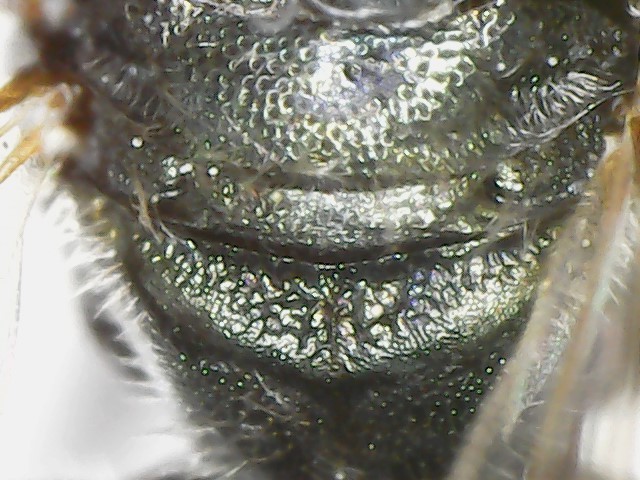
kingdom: Animalia
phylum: Arthropoda
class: Insecta
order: Hymenoptera
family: Apidae
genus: Ceratina
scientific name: Ceratina calcarata
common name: Spurred carpenter bee
